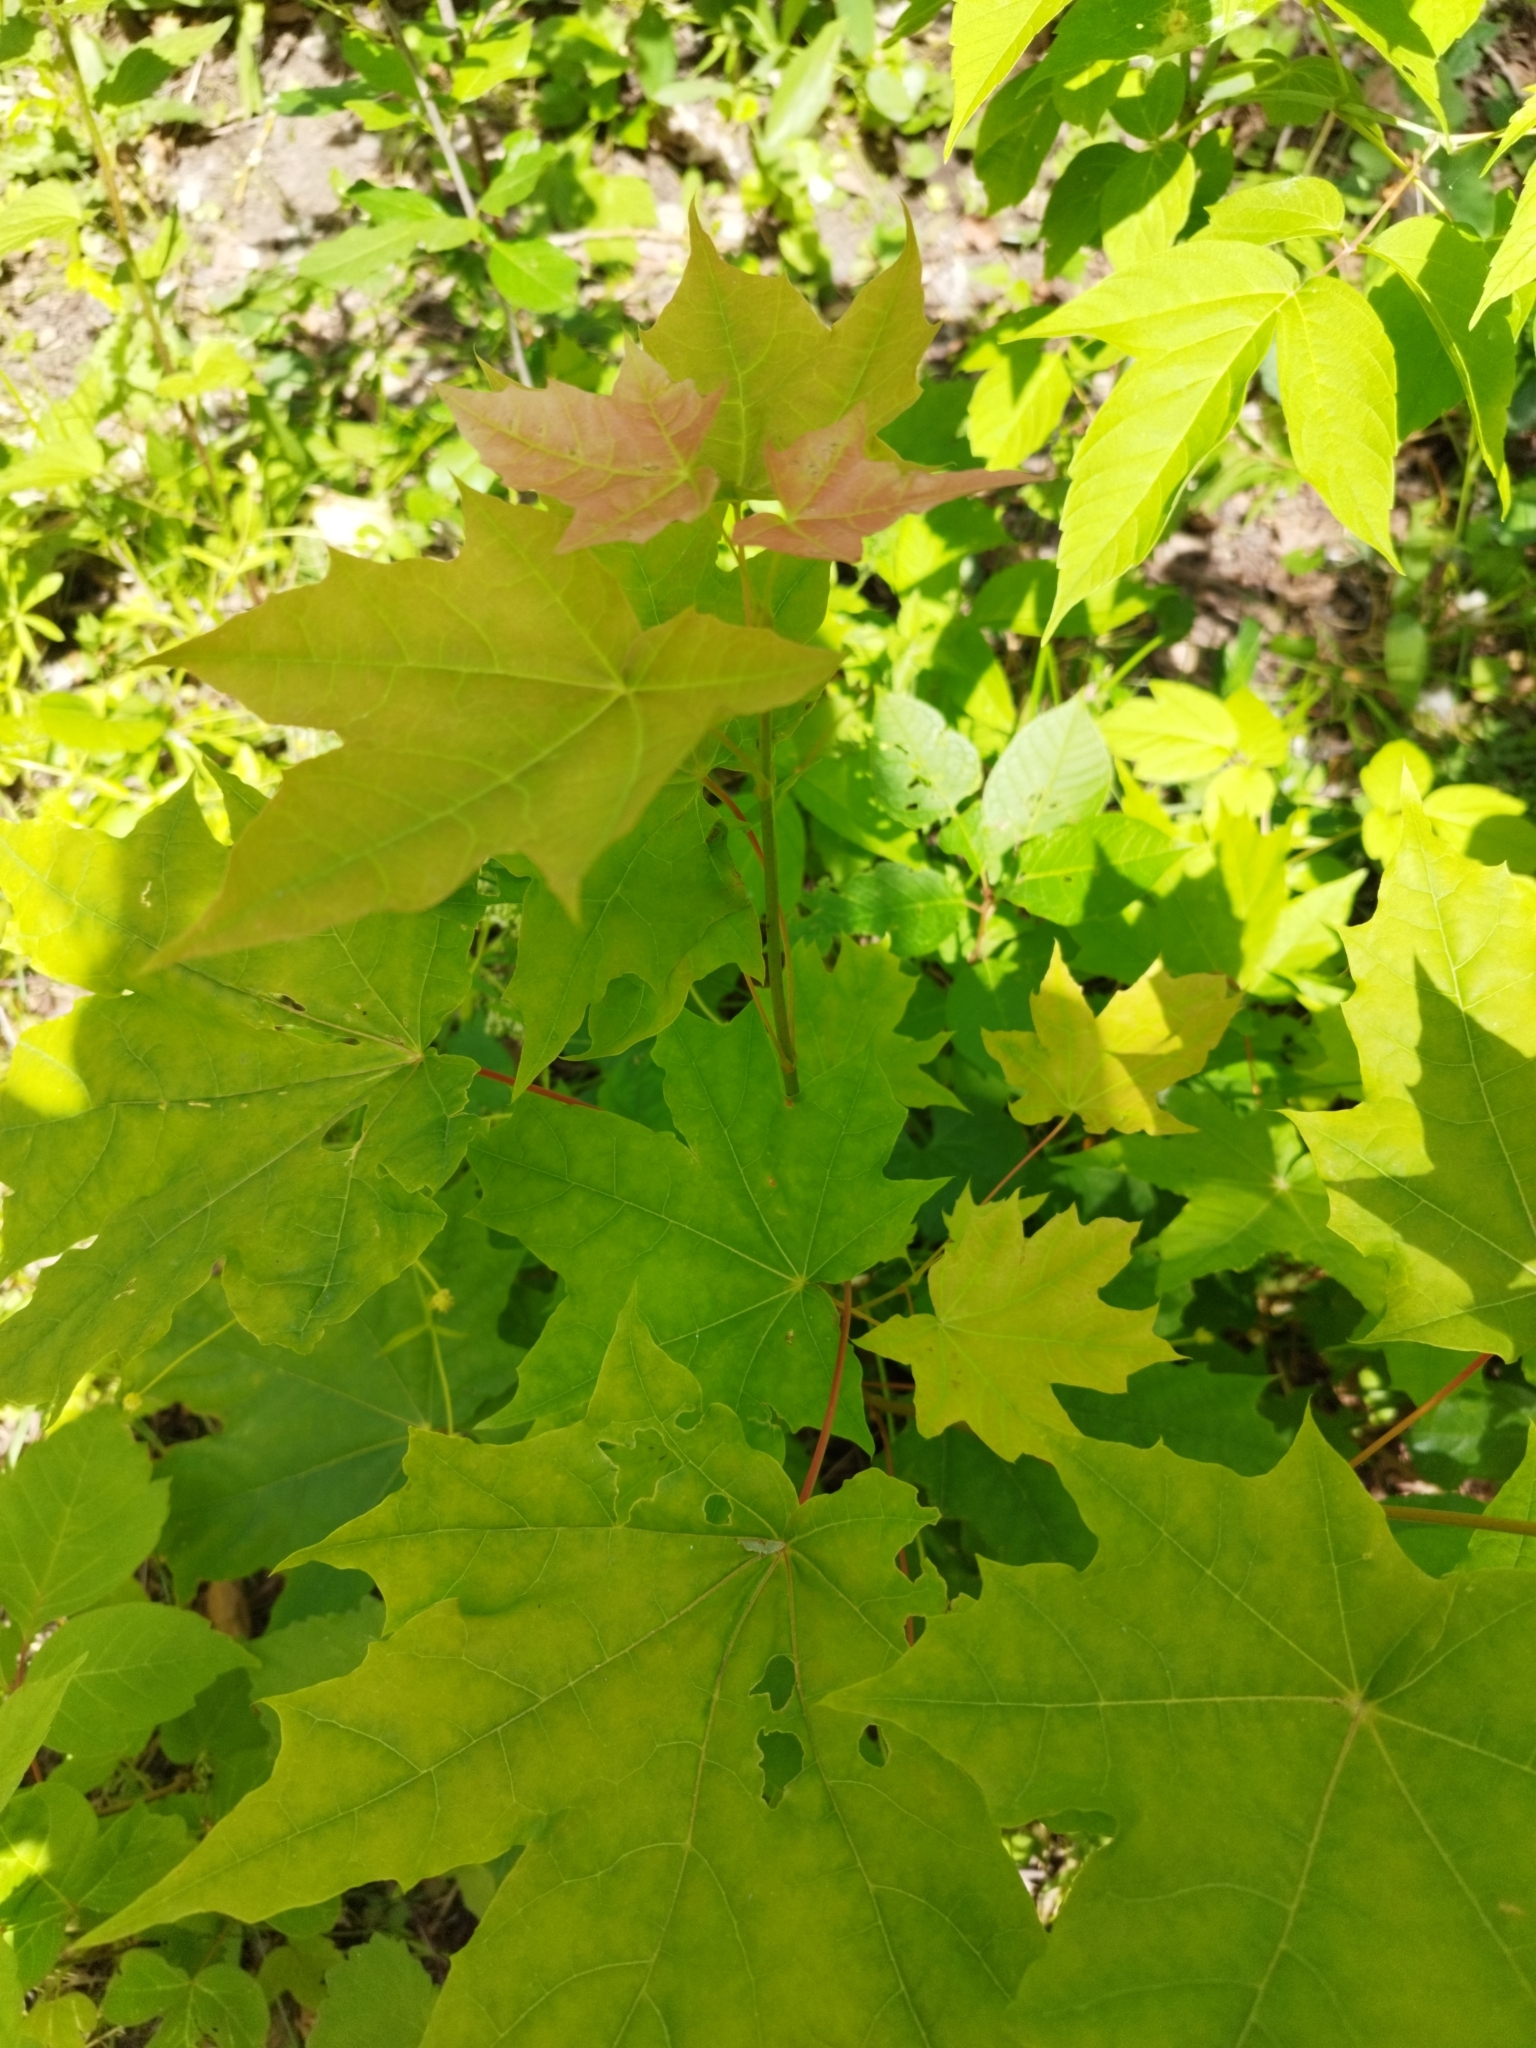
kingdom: Plantae
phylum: Tracheophyta
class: Magnoliopsida
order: Sapindales
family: Sapindaceae
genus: Acer
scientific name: Acer platanoides
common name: Norway maple
